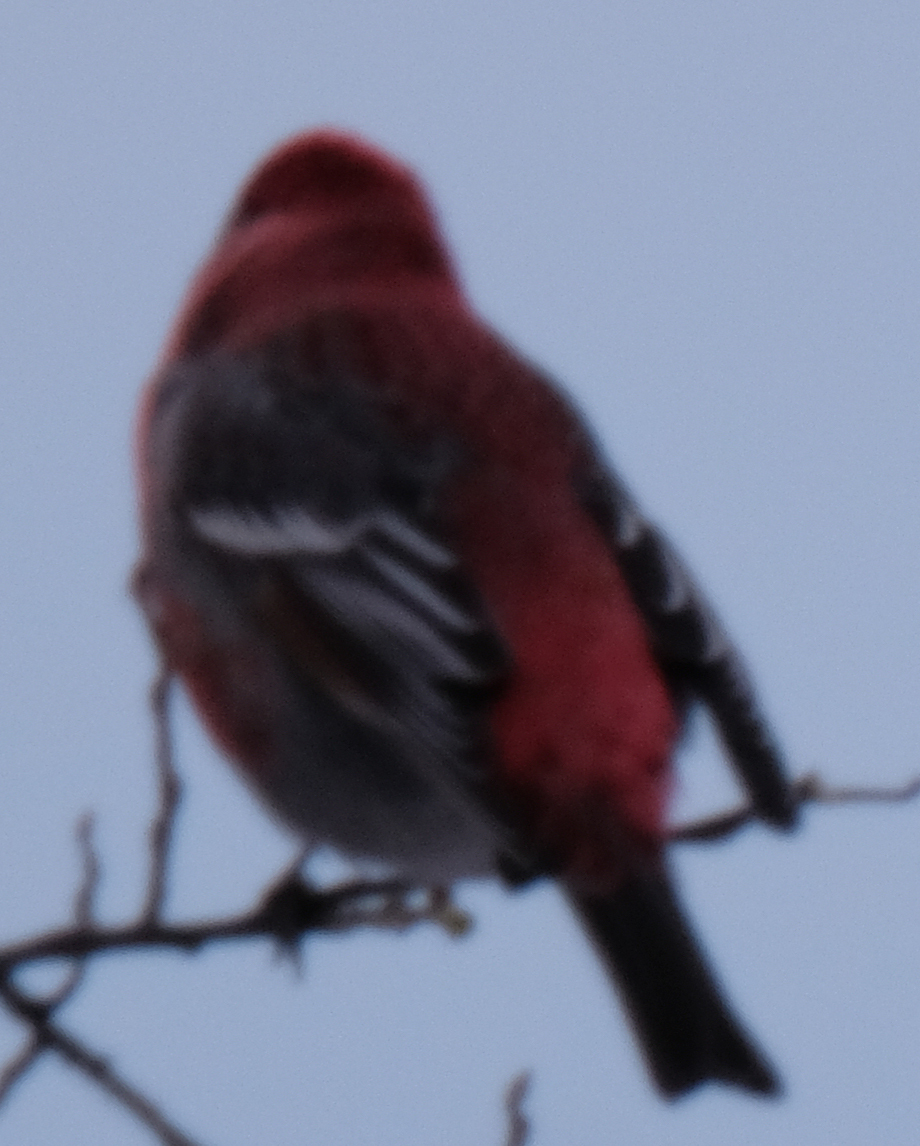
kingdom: Animalia
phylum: Chordata
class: Aves
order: Passeriformes
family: Fringillidae
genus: Pinicola
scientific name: Pinicola enucleator
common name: Pine grosbeak
